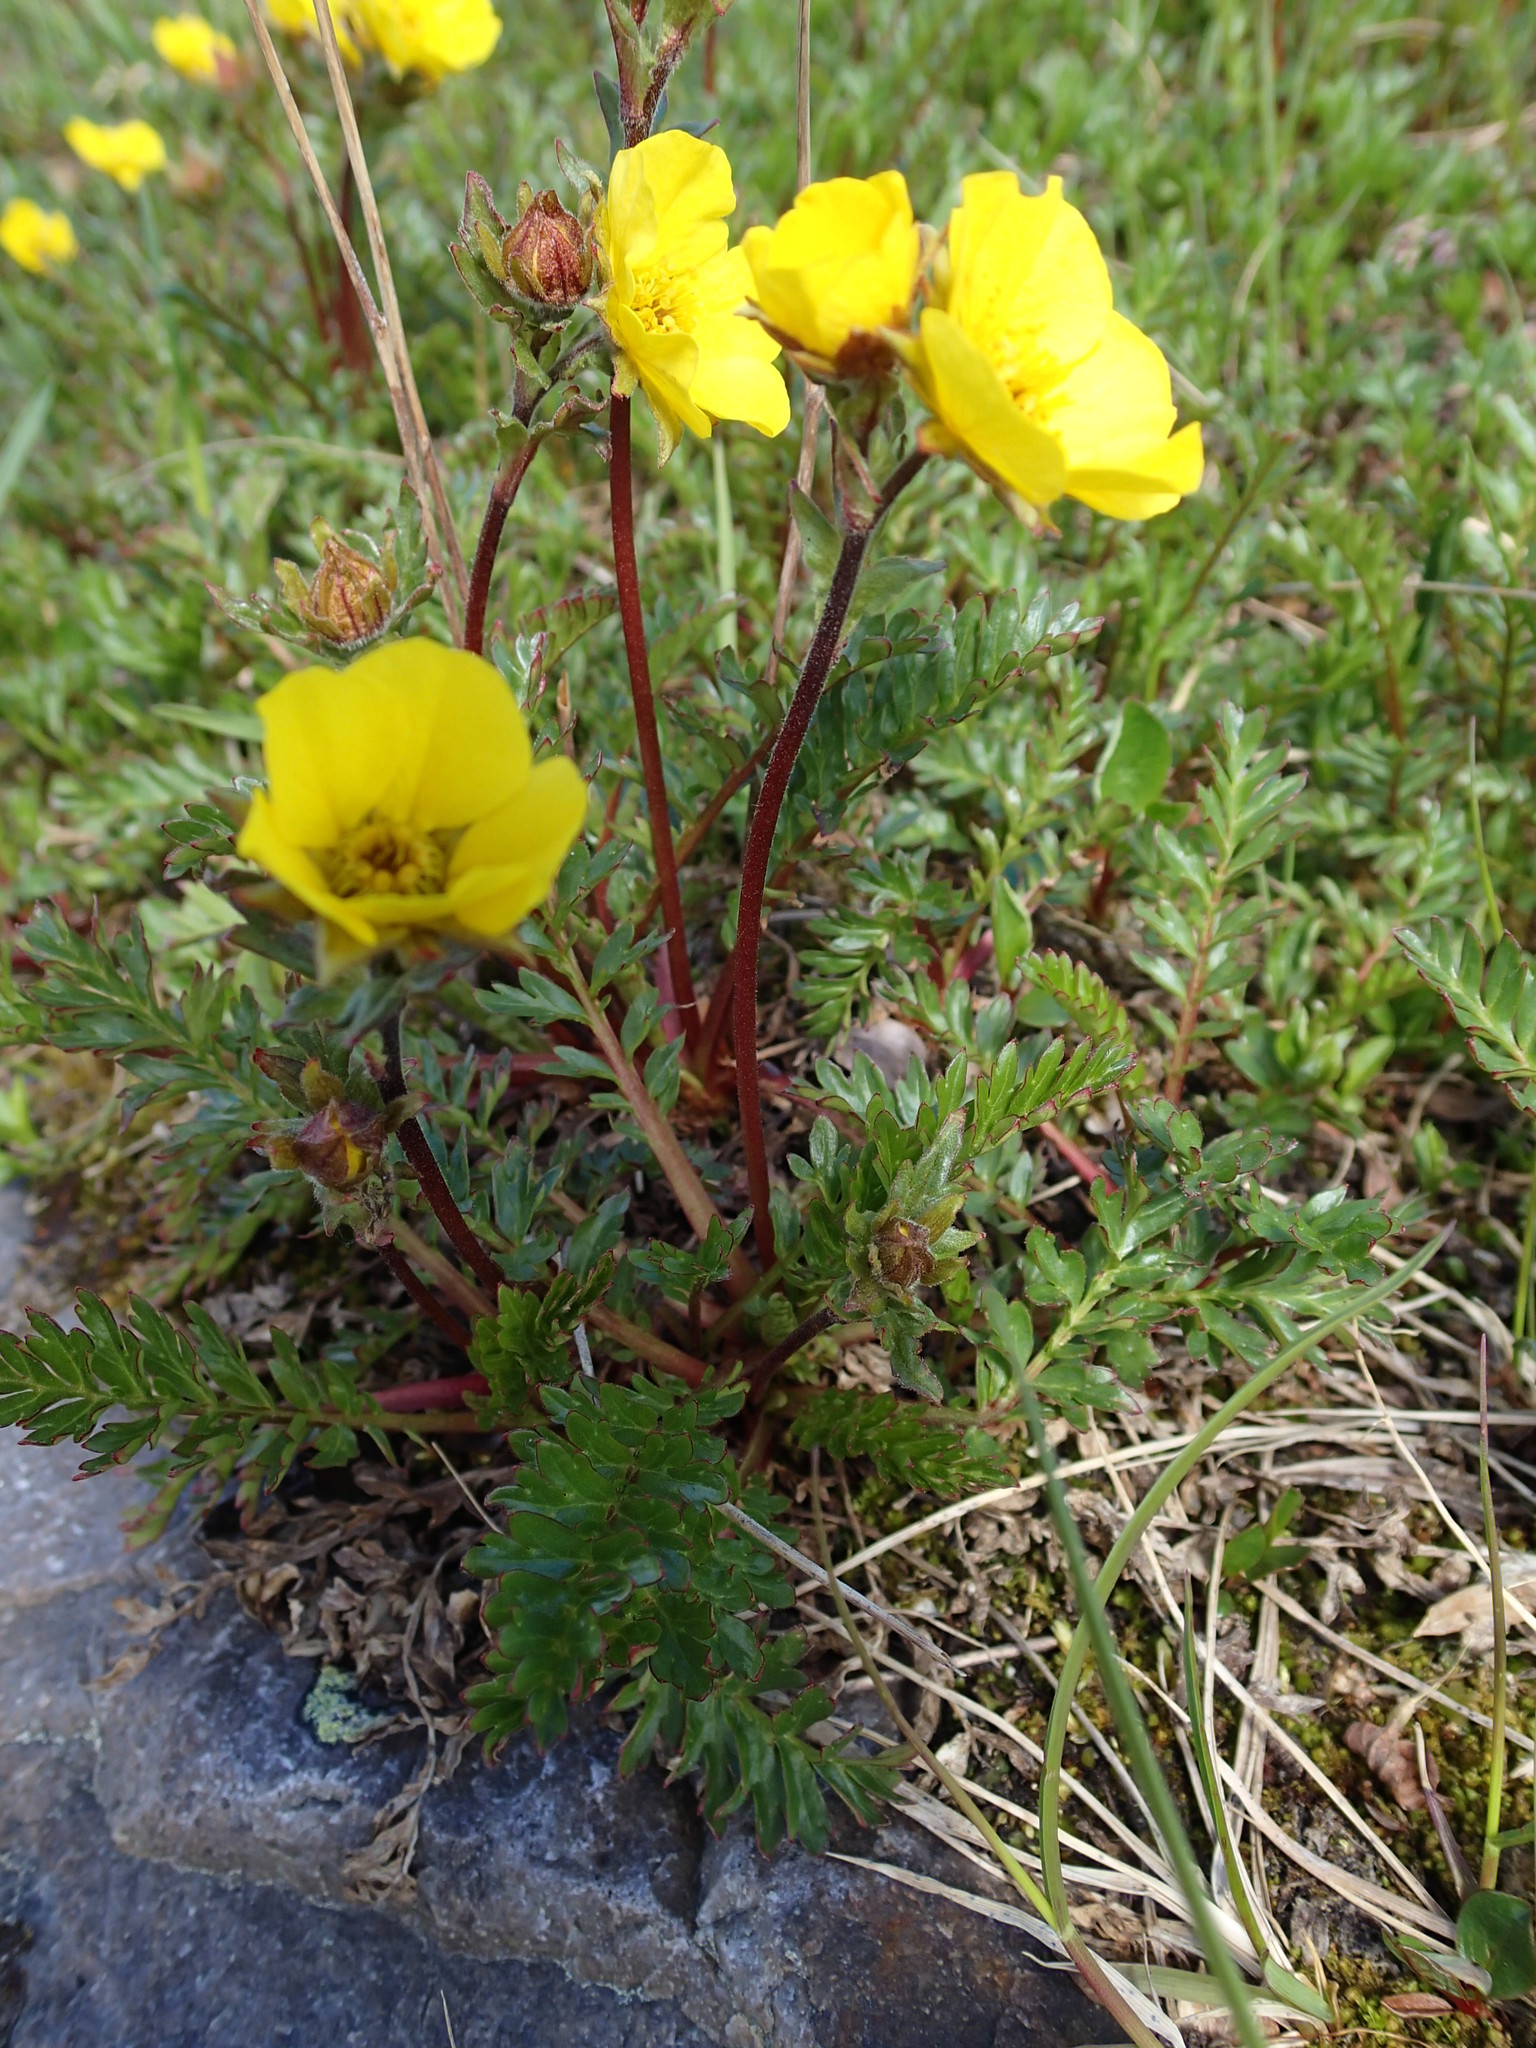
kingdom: Plantae
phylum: Tracheophyta
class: Magnoliopsida
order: Rosales
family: Rosaceae
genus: Geum
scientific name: Geum rossii
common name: Alpine avens
